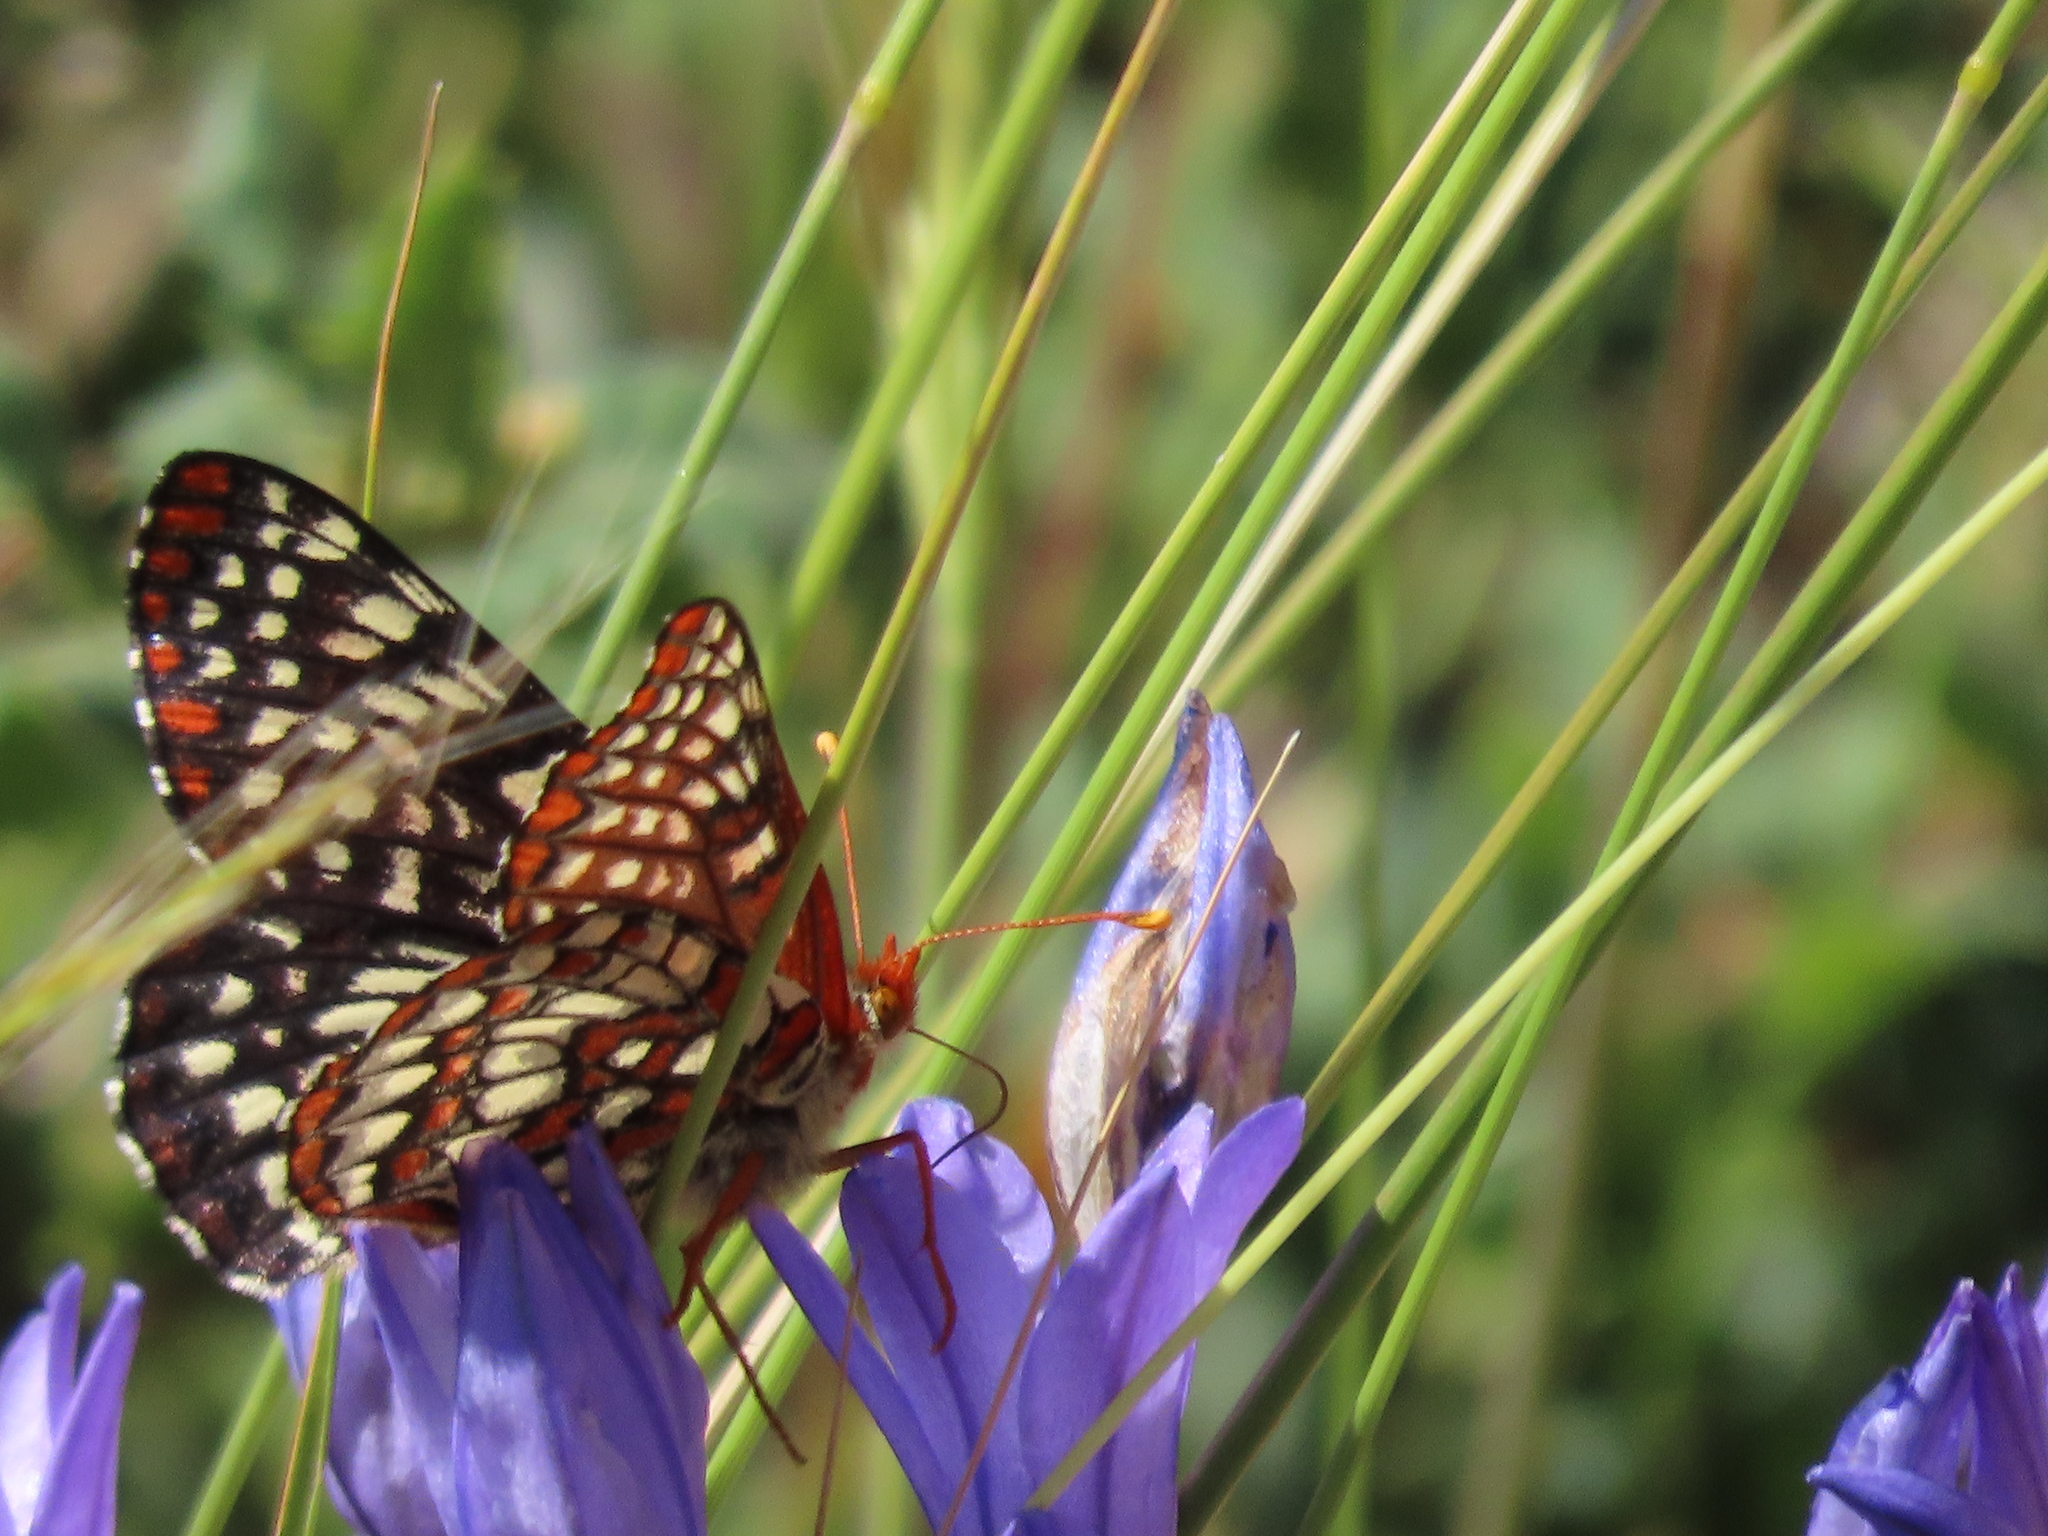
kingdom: Animalia
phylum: Arthropoda
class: Insecta
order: Lepidoptera
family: Nymphalidae
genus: Occidryas
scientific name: Occidryas chalcedona
